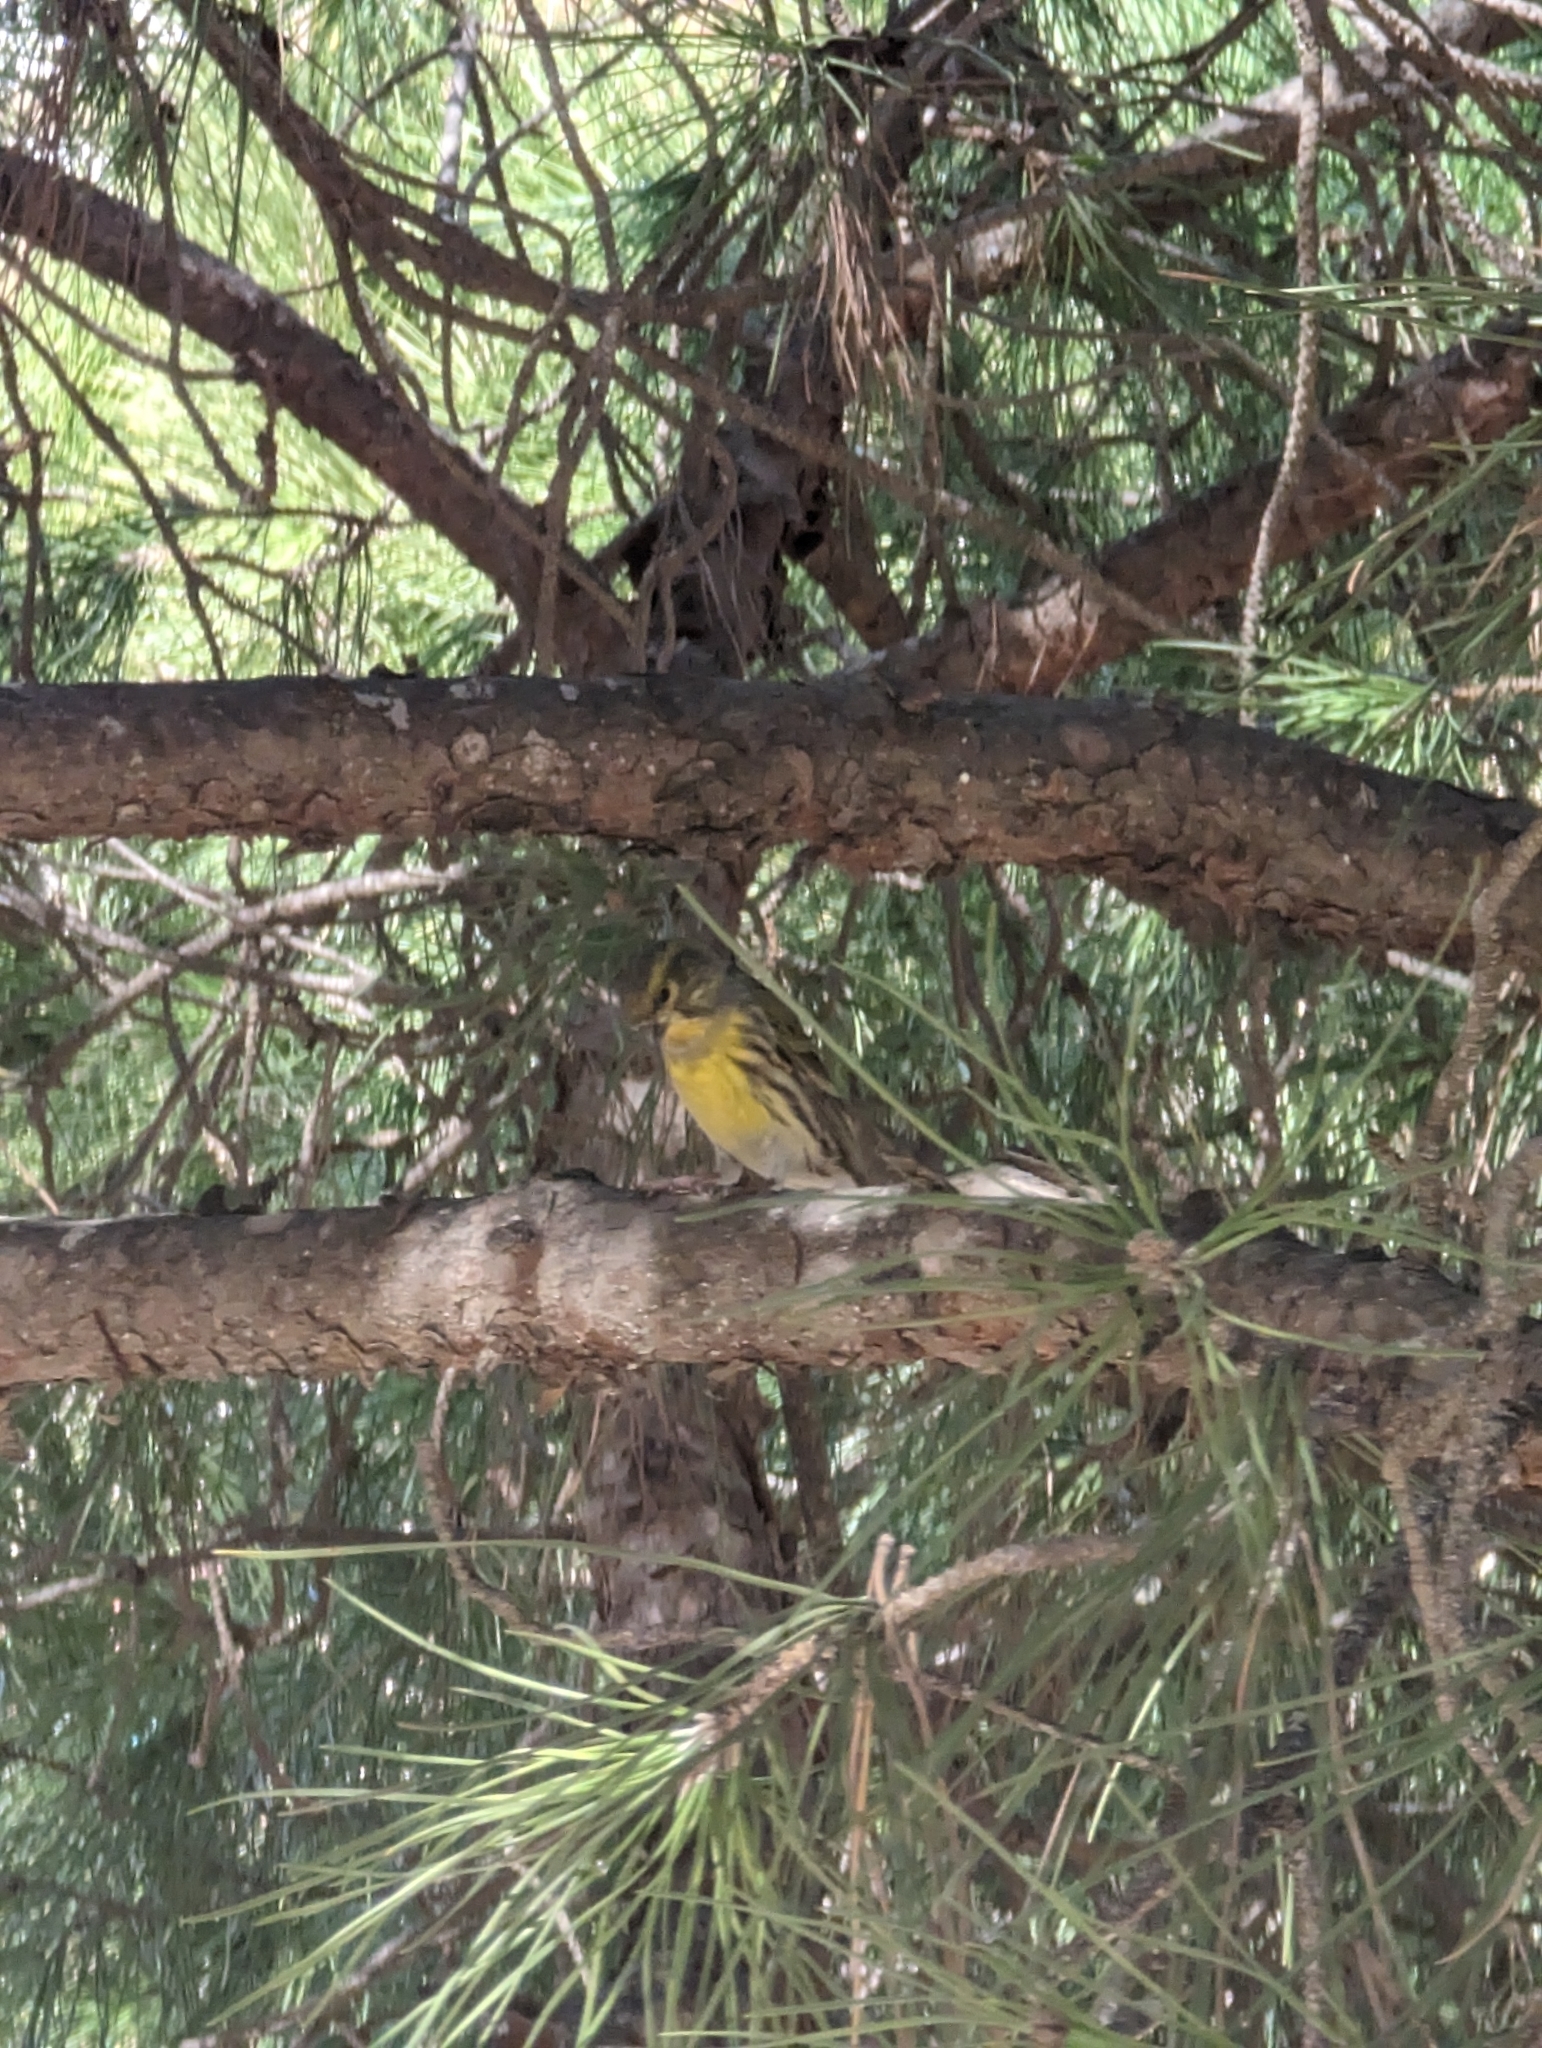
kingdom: Animalia
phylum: Chordata
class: Aves
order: Passeriformes
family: Fringillidae
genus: Serinus
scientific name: Serinus serinus
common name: European serin
